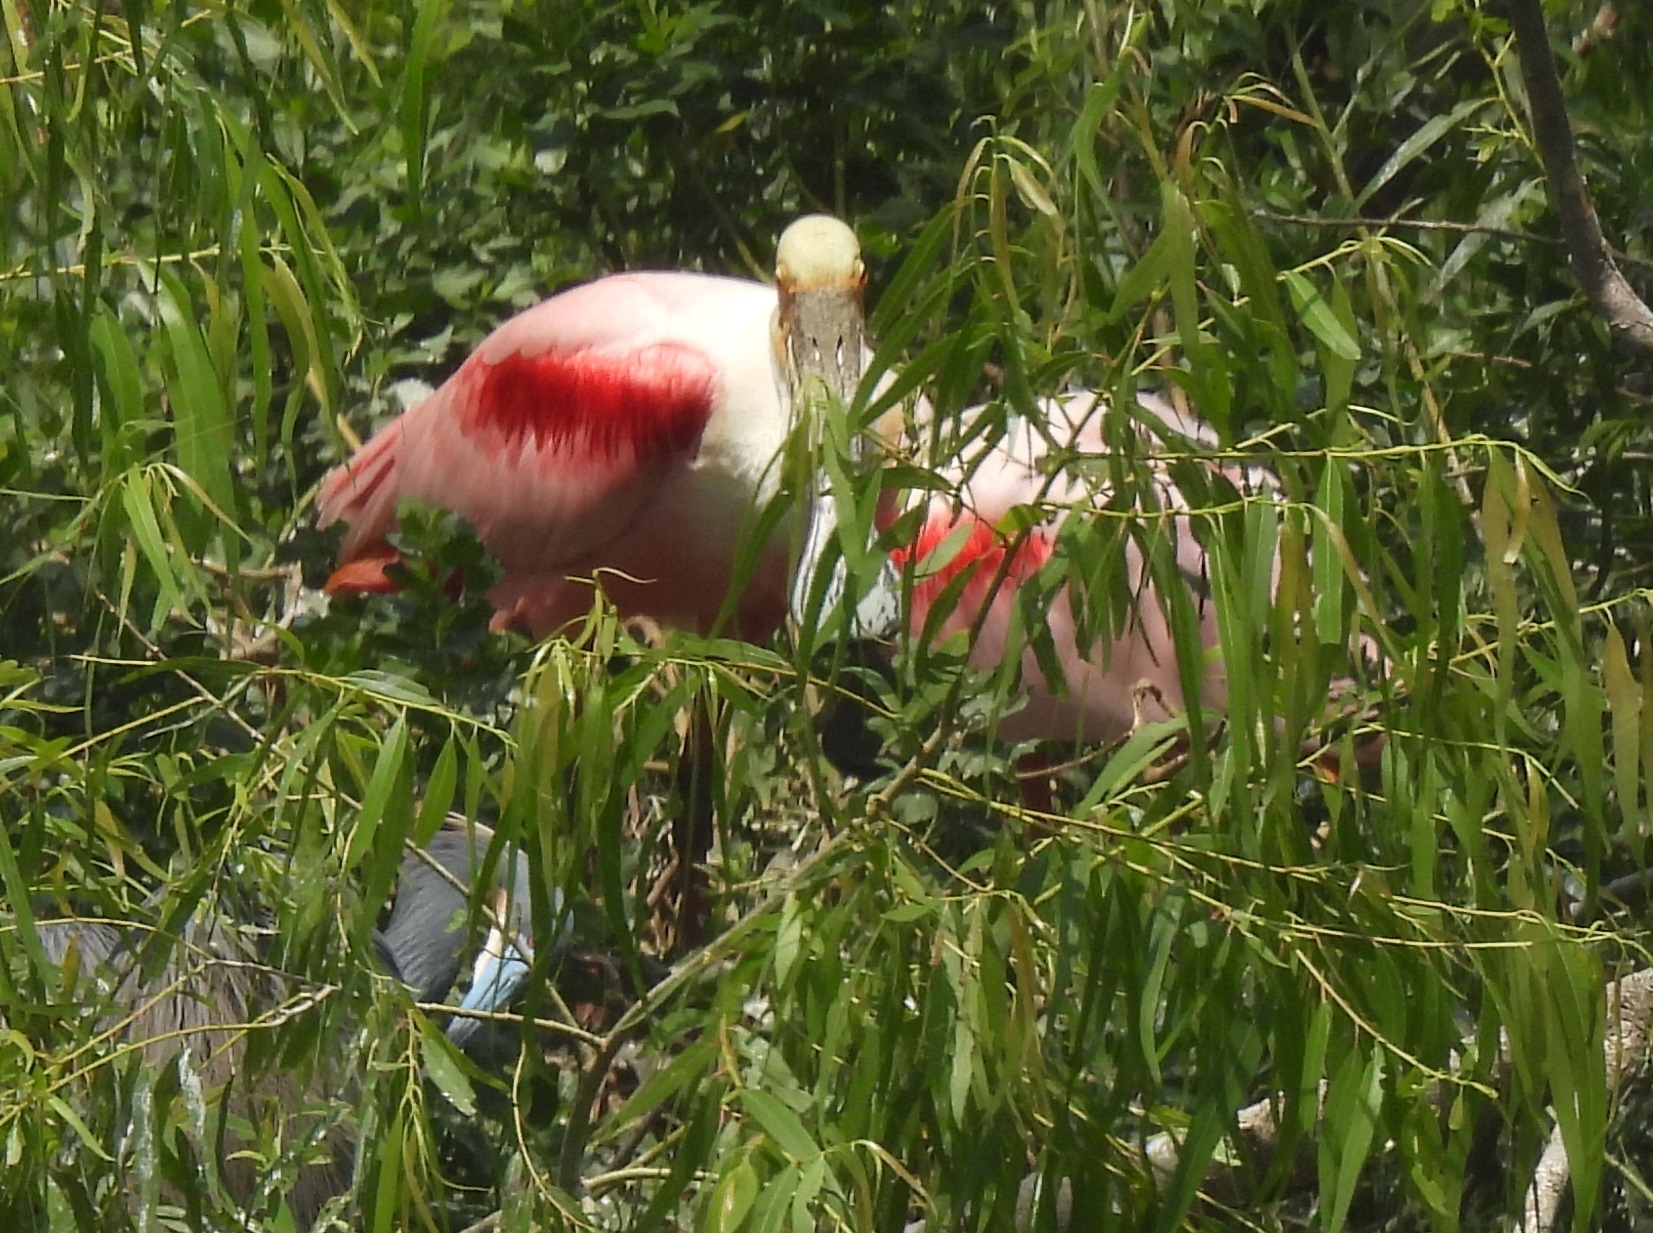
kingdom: Animalia
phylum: Chordata
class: Aves
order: Pelecaniformes
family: Threskiornithidae
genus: Platalea
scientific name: Platalea ajaja
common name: Roseate spoonbill
